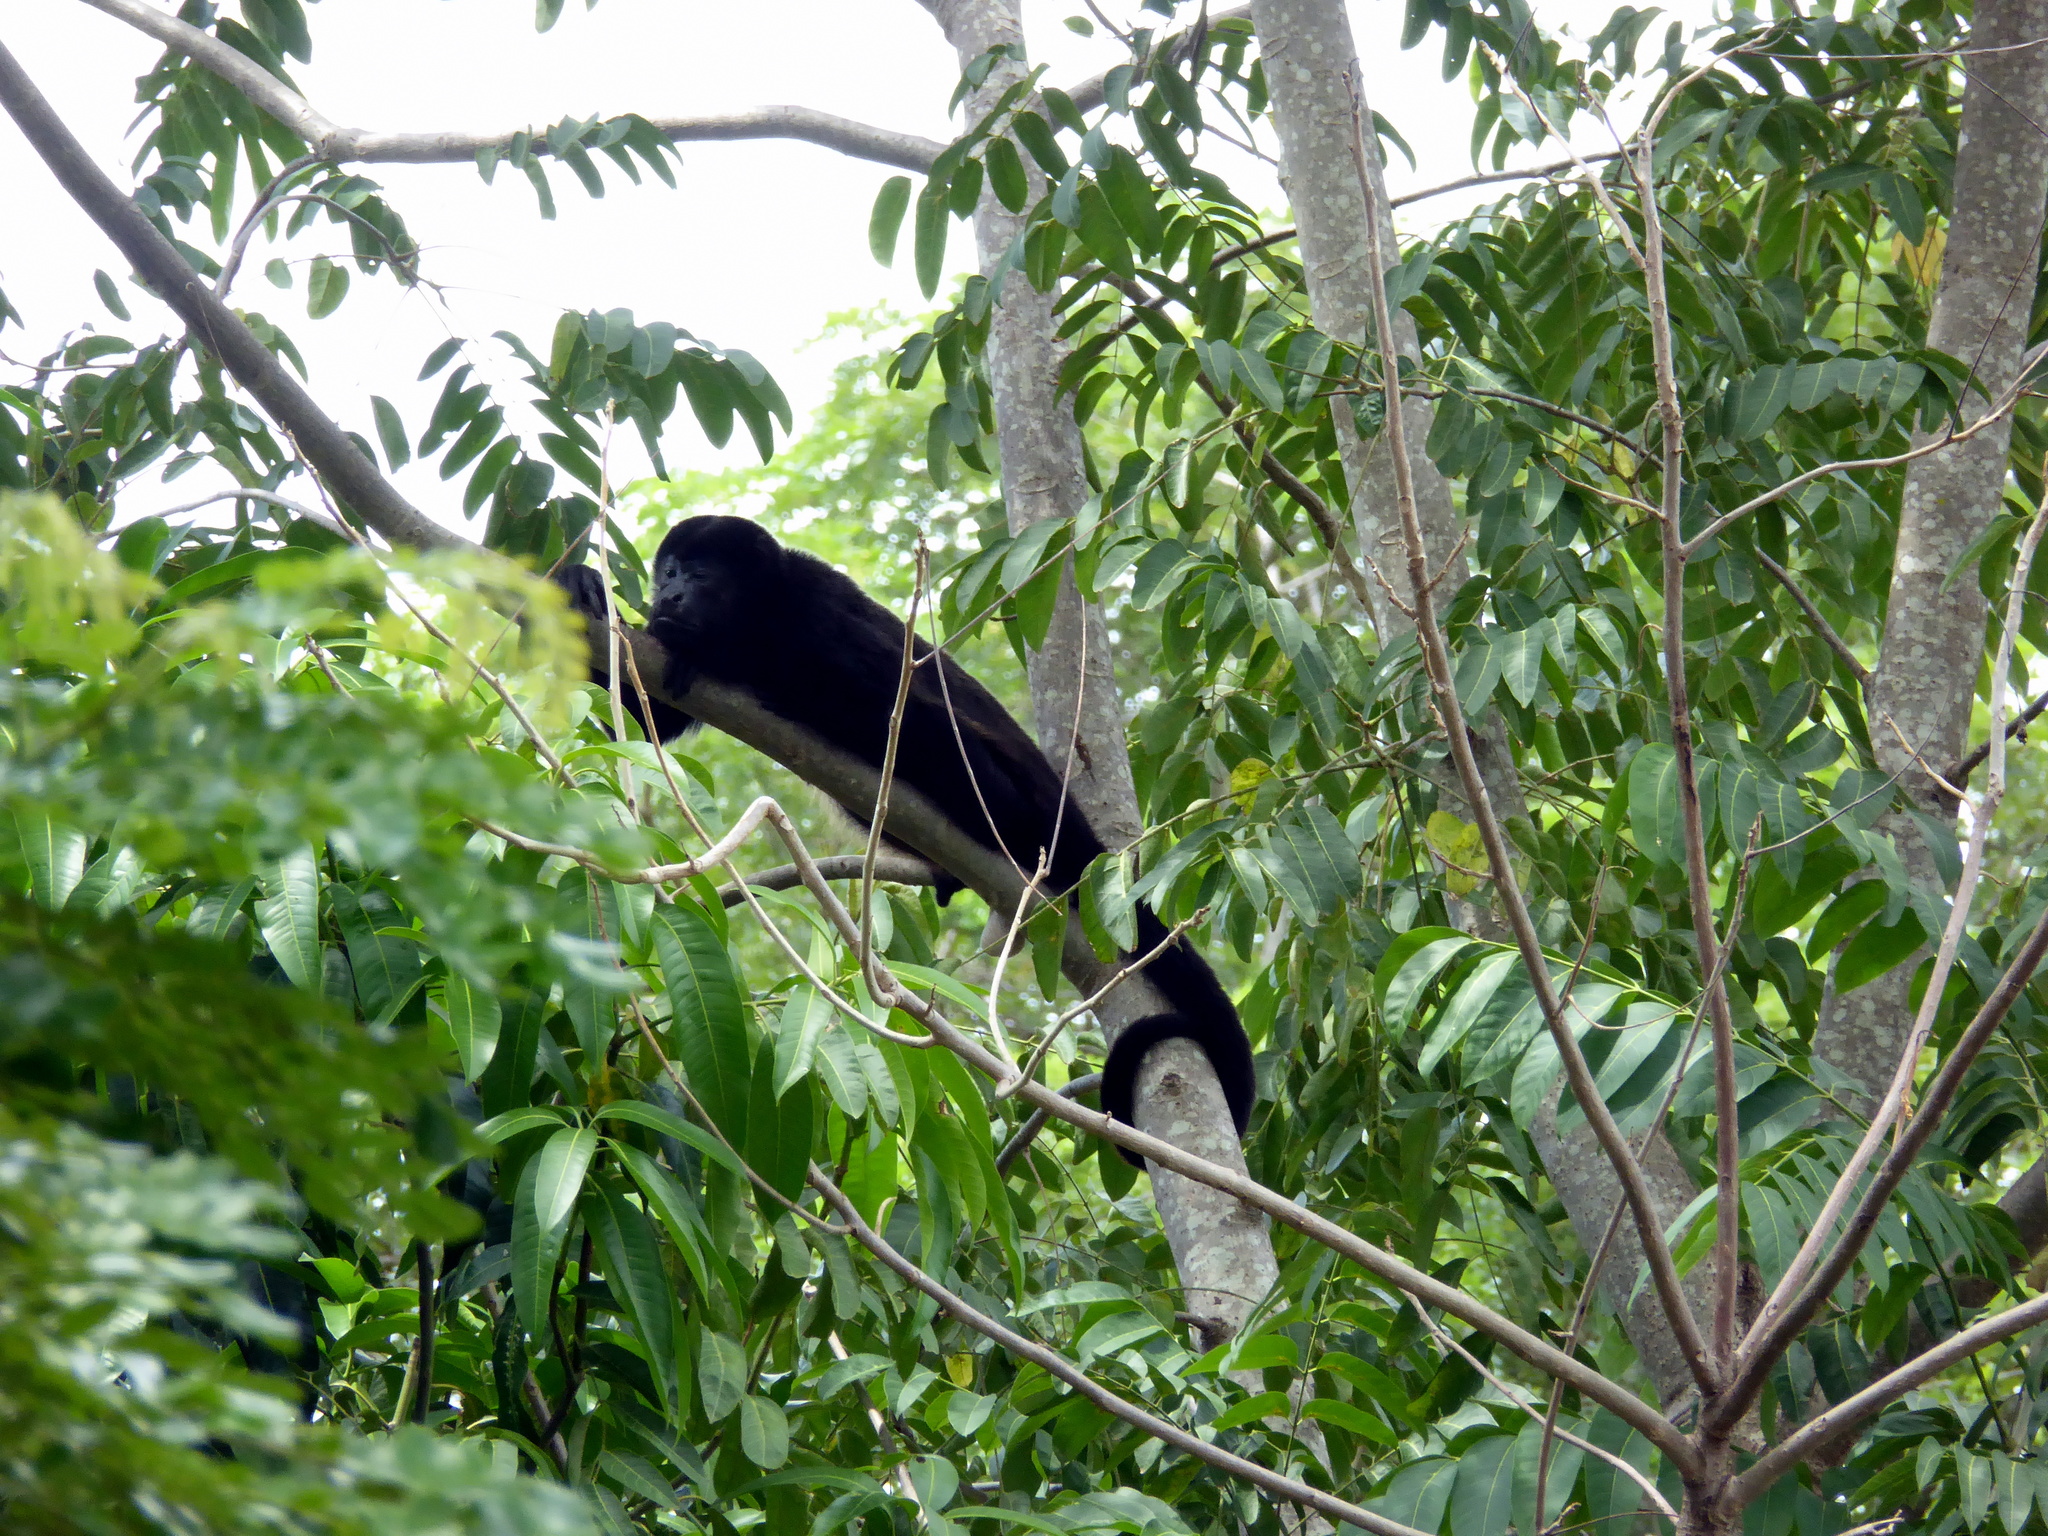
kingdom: Animalia
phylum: Chordata
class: Mammalia
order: Primates
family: Atelidae
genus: Alouatta
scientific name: Alouatta palliata
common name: Mantled howler
